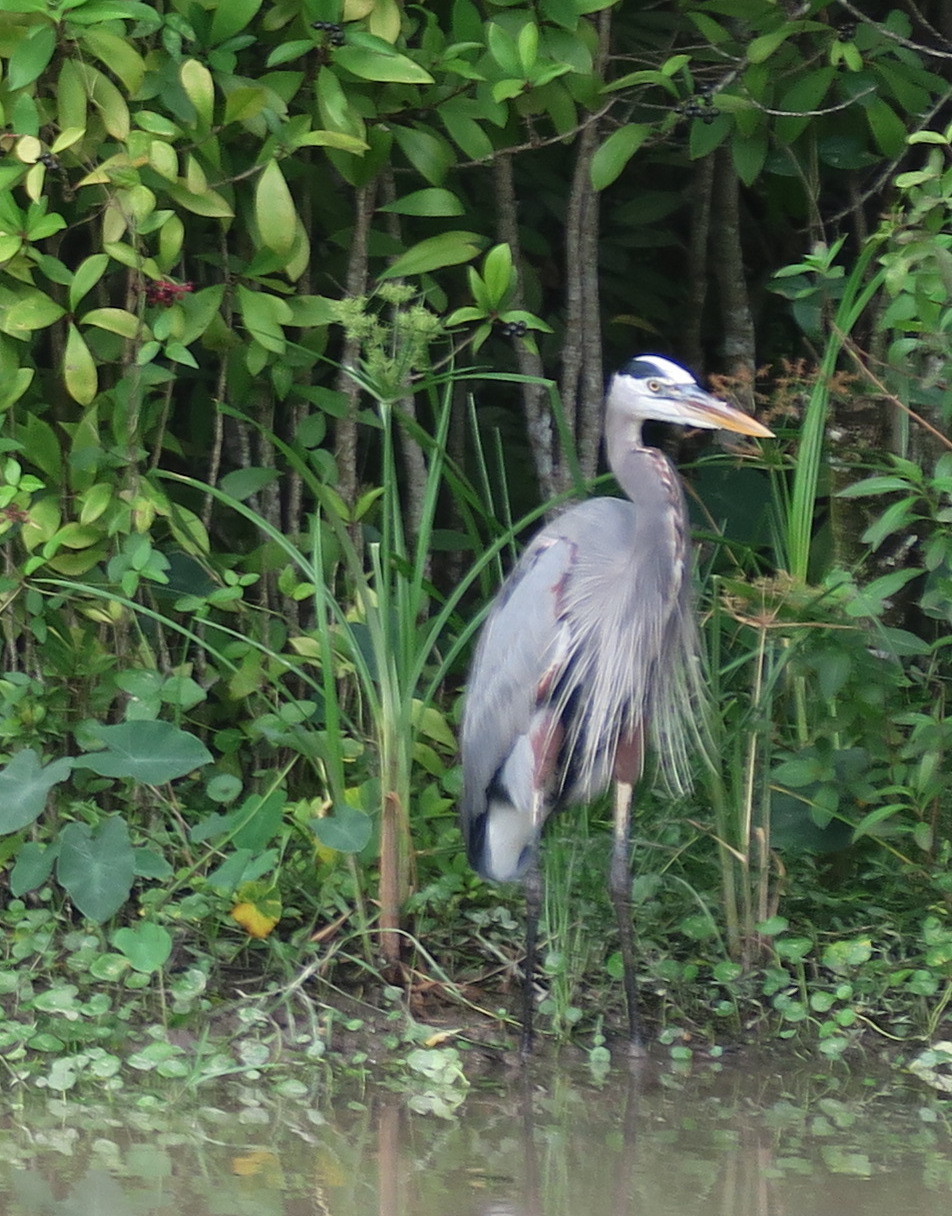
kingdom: Animalia
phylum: Chordata
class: Aves
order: Pelecaniformes
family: Ardeidae
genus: Ardea
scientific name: Ardea herodias
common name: Great blue heron
